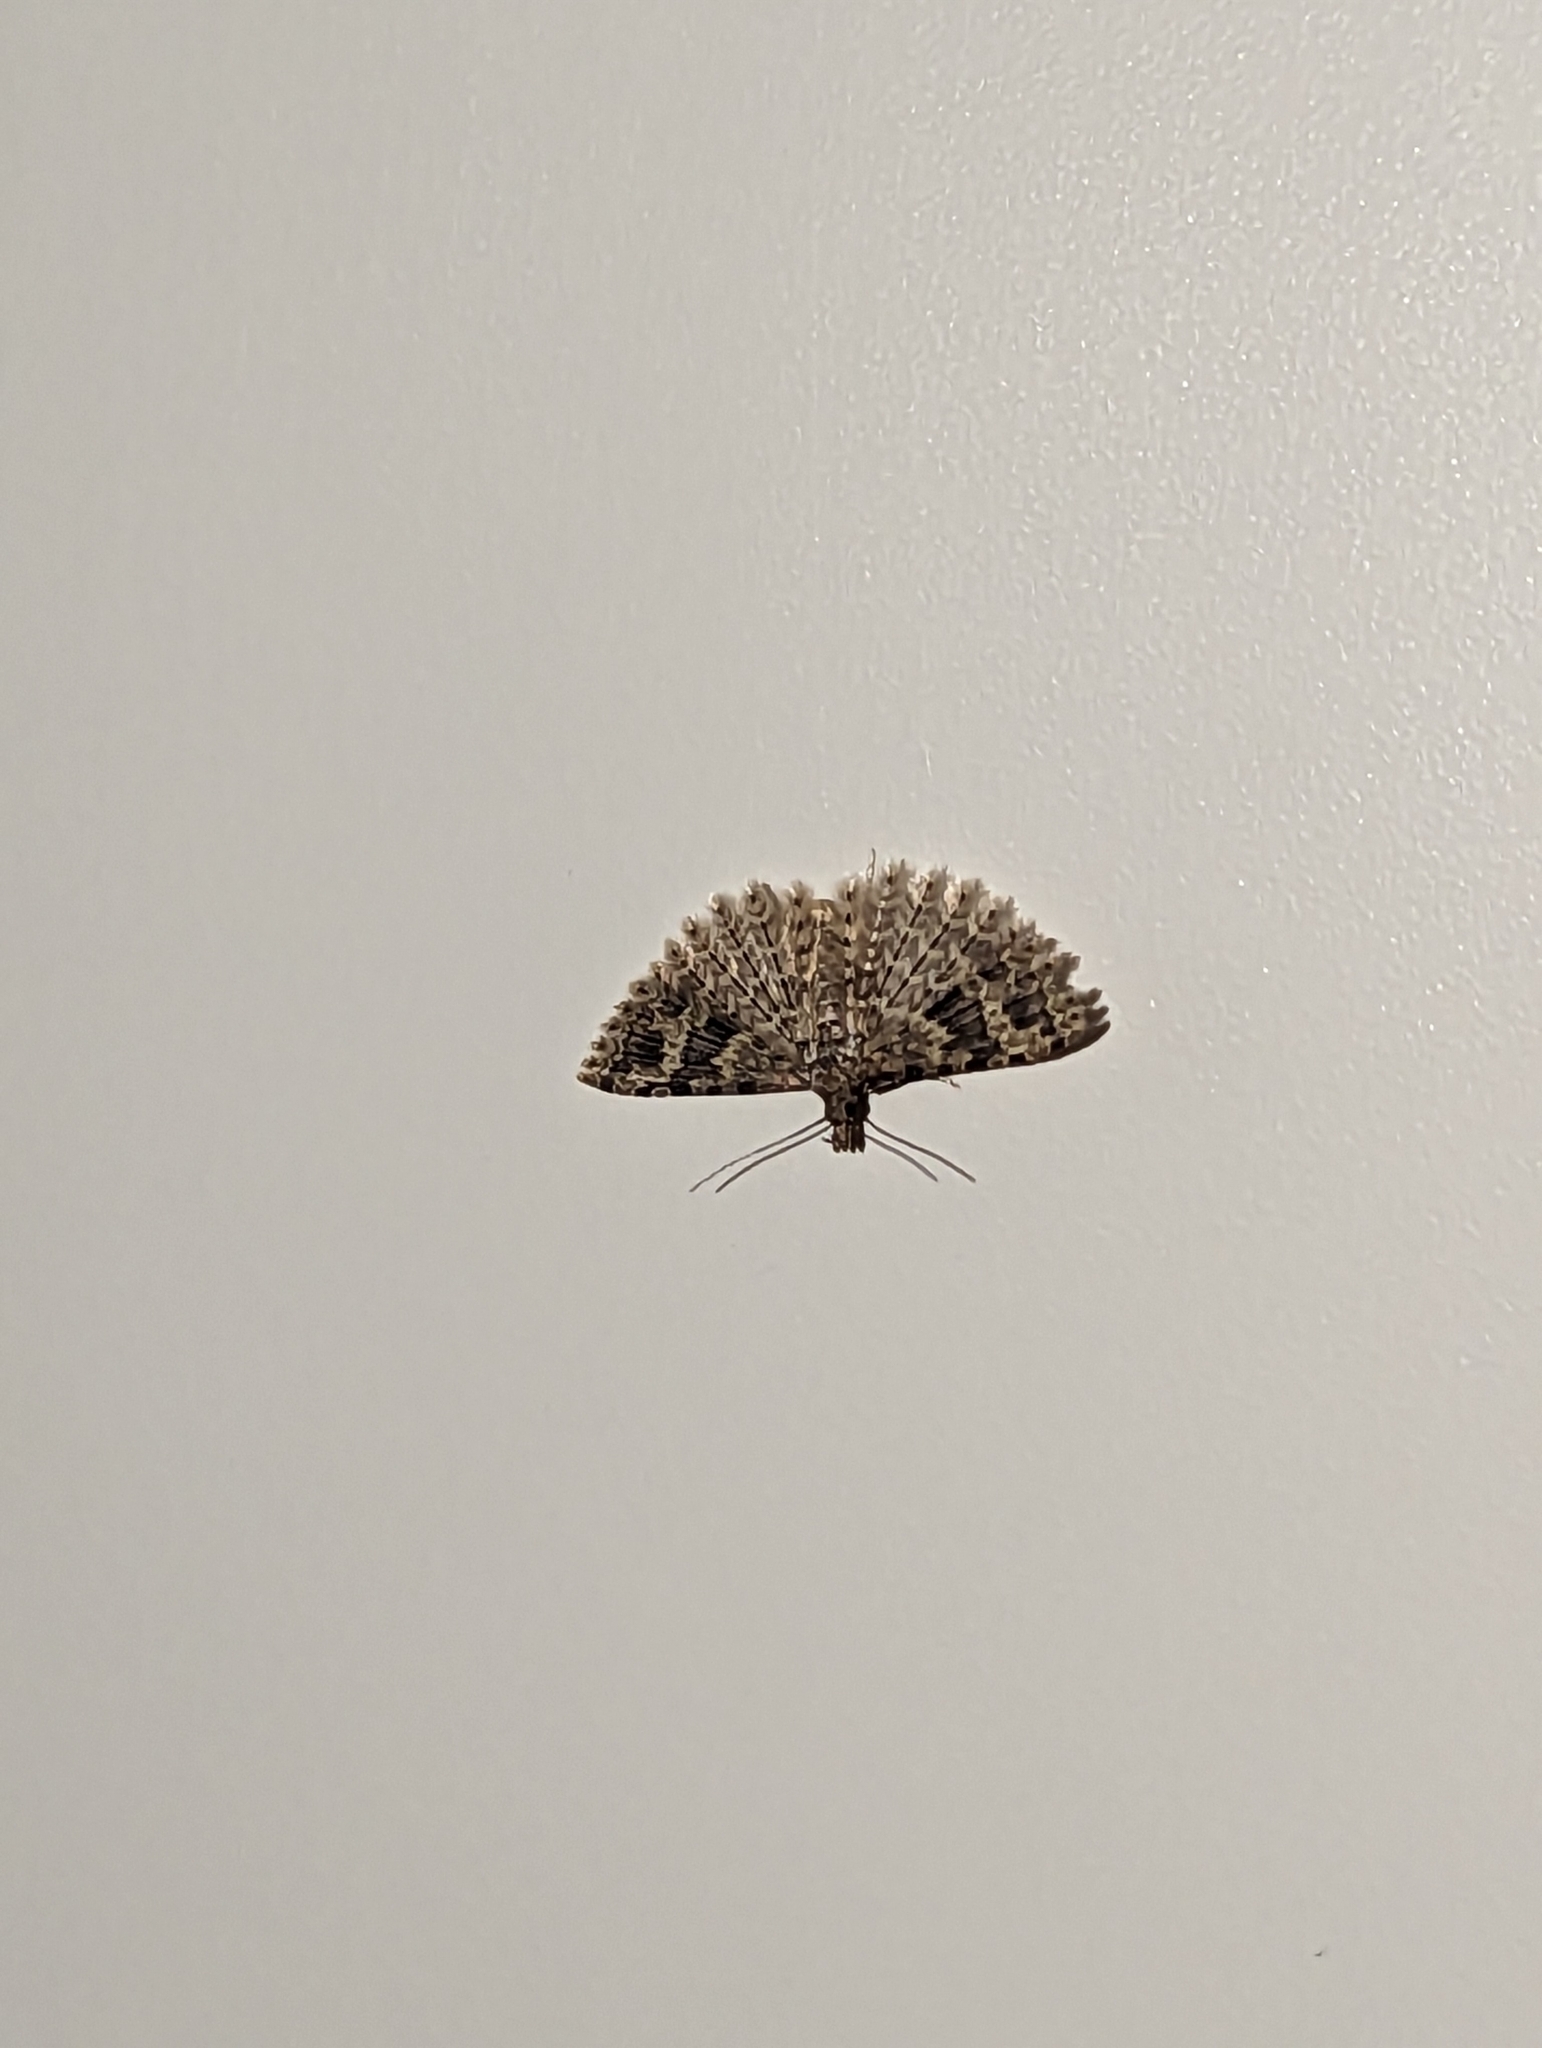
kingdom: Animalia
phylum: Arthropoda
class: Insecta
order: Lepidoptera
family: Alucitidae
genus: Alucita
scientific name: Alucita hexadactyla
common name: Twenty-plume moth
